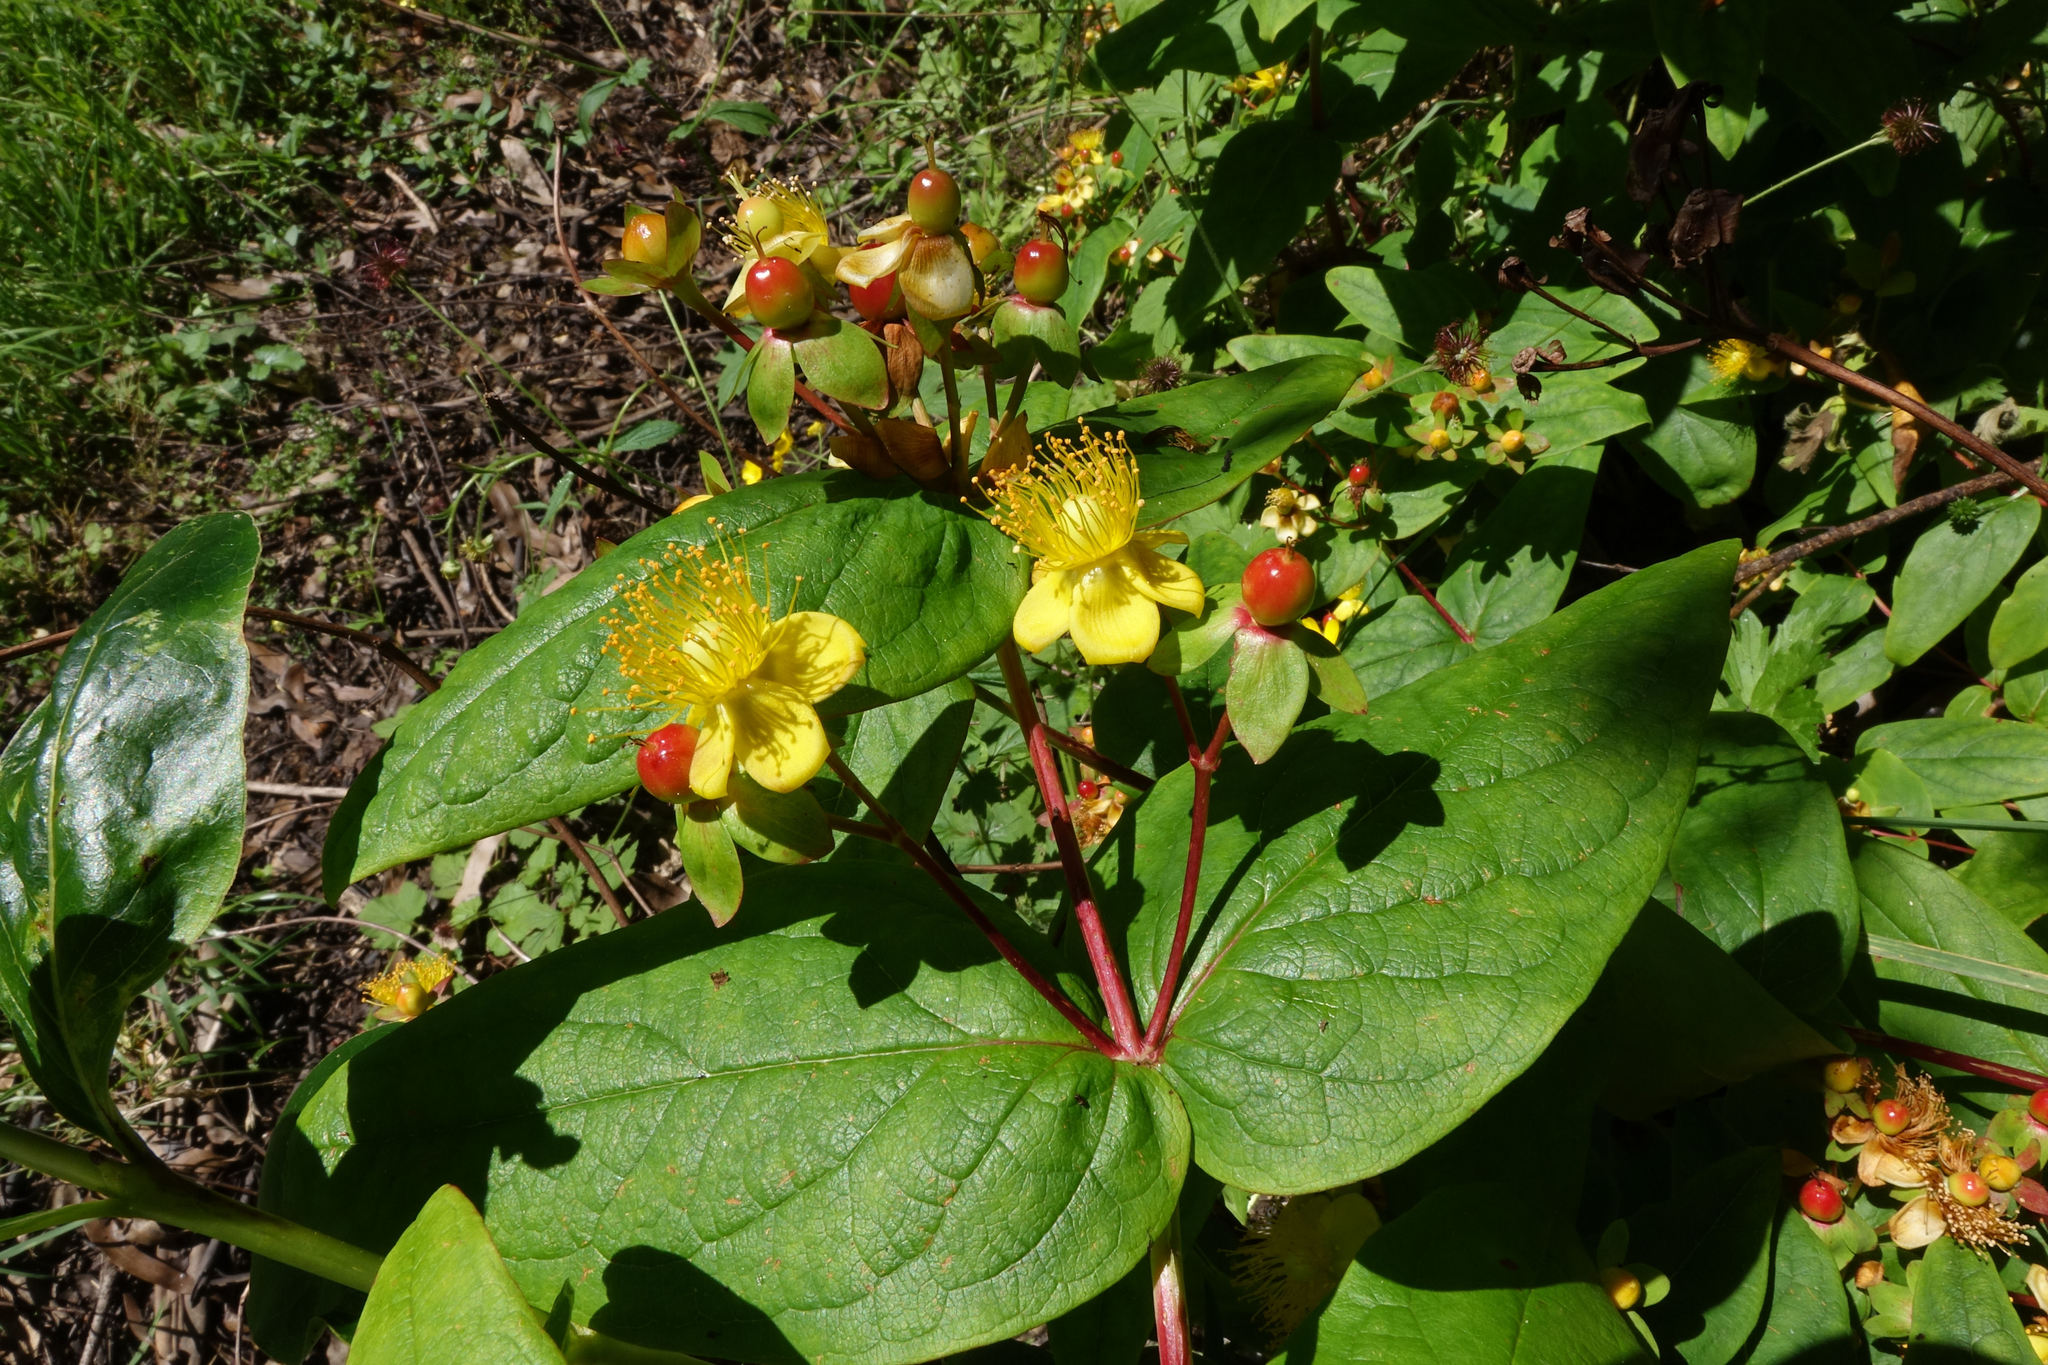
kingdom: Plantae
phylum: Tracheophyta
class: Magnoliopsida
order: Malpighiales
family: Hypericaceae
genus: Hypericum
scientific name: Hypericum androsaemum
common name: Sweet-amber
